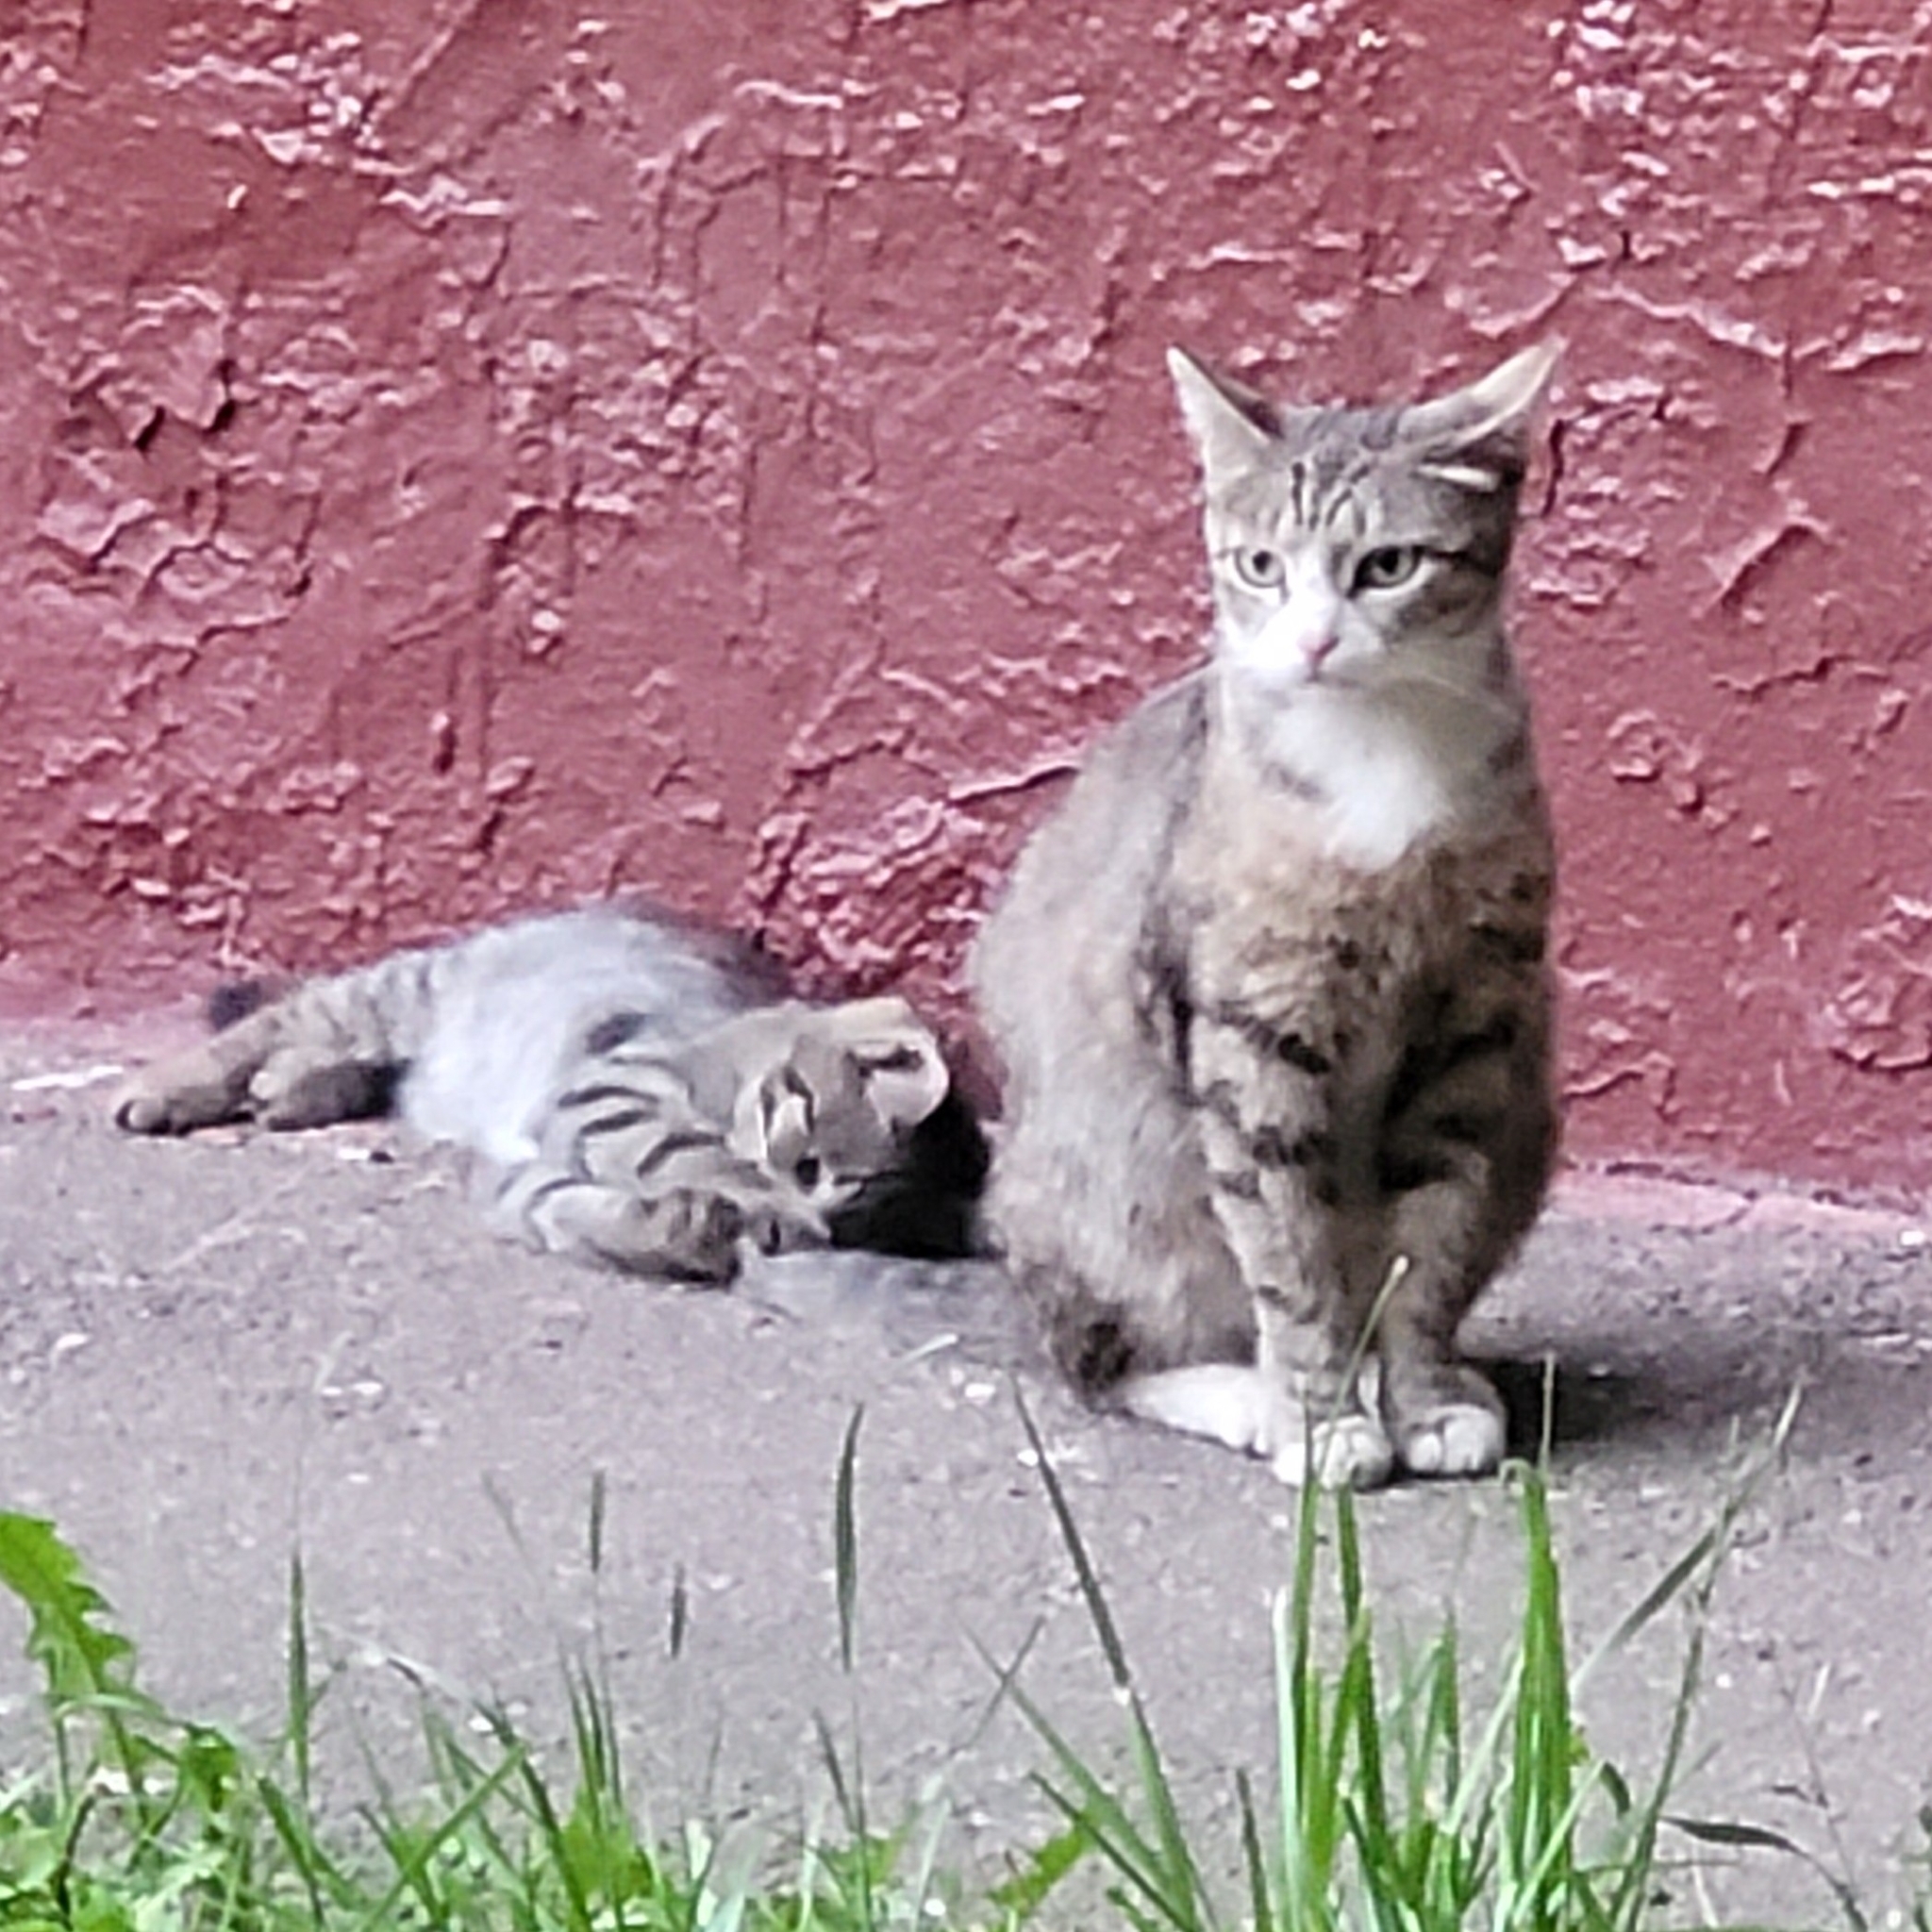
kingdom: Animalia
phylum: Chordata
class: Mammalia
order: Carnivora
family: Felidae
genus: Felis
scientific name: Felis catus
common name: Domestic cat
